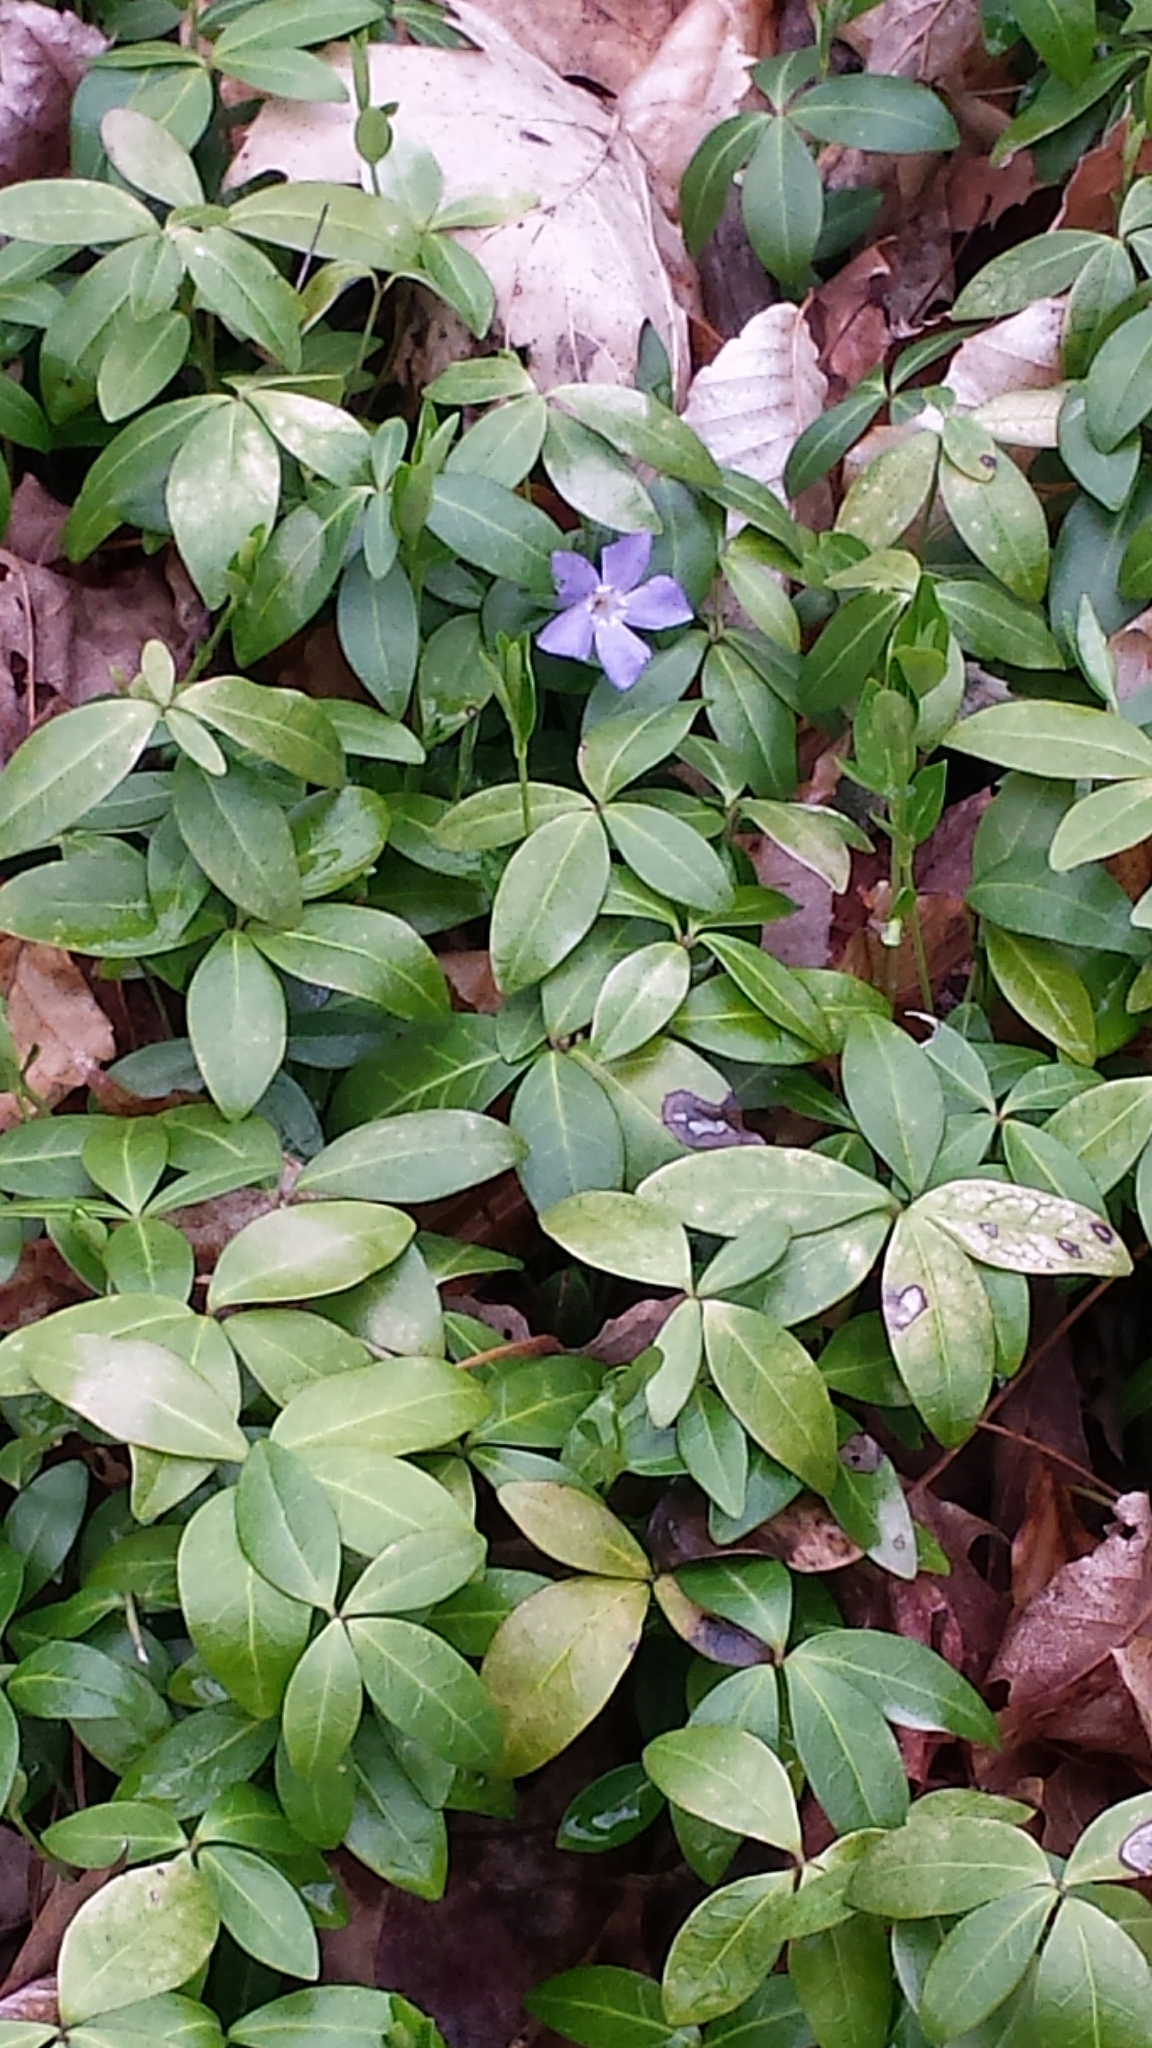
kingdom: Plantae
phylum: Tracheophyta
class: Magnoliopsida
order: Gentianales
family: Apocynaceae
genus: Vinca
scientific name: Vinca minor
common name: Lesser periwinkle
